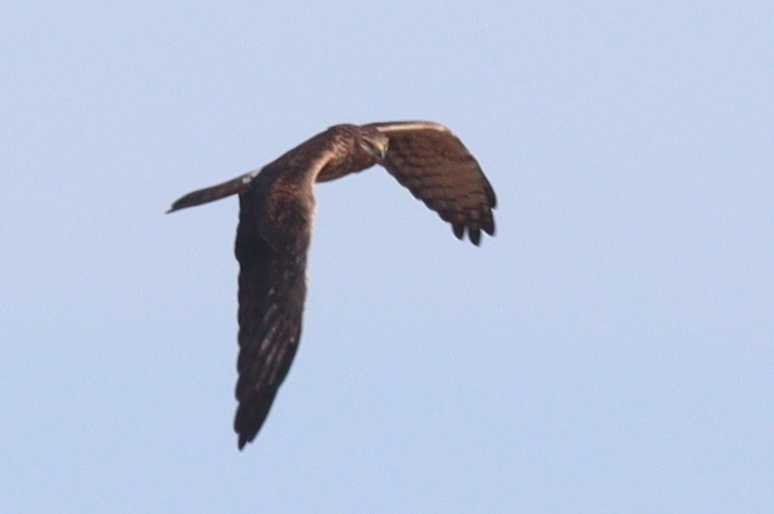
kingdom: Animalia
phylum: Chordata
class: Aves
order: Accipitriformes
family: Accipitridae
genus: Circus
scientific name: Circus pygargus
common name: Montagu's harrier
